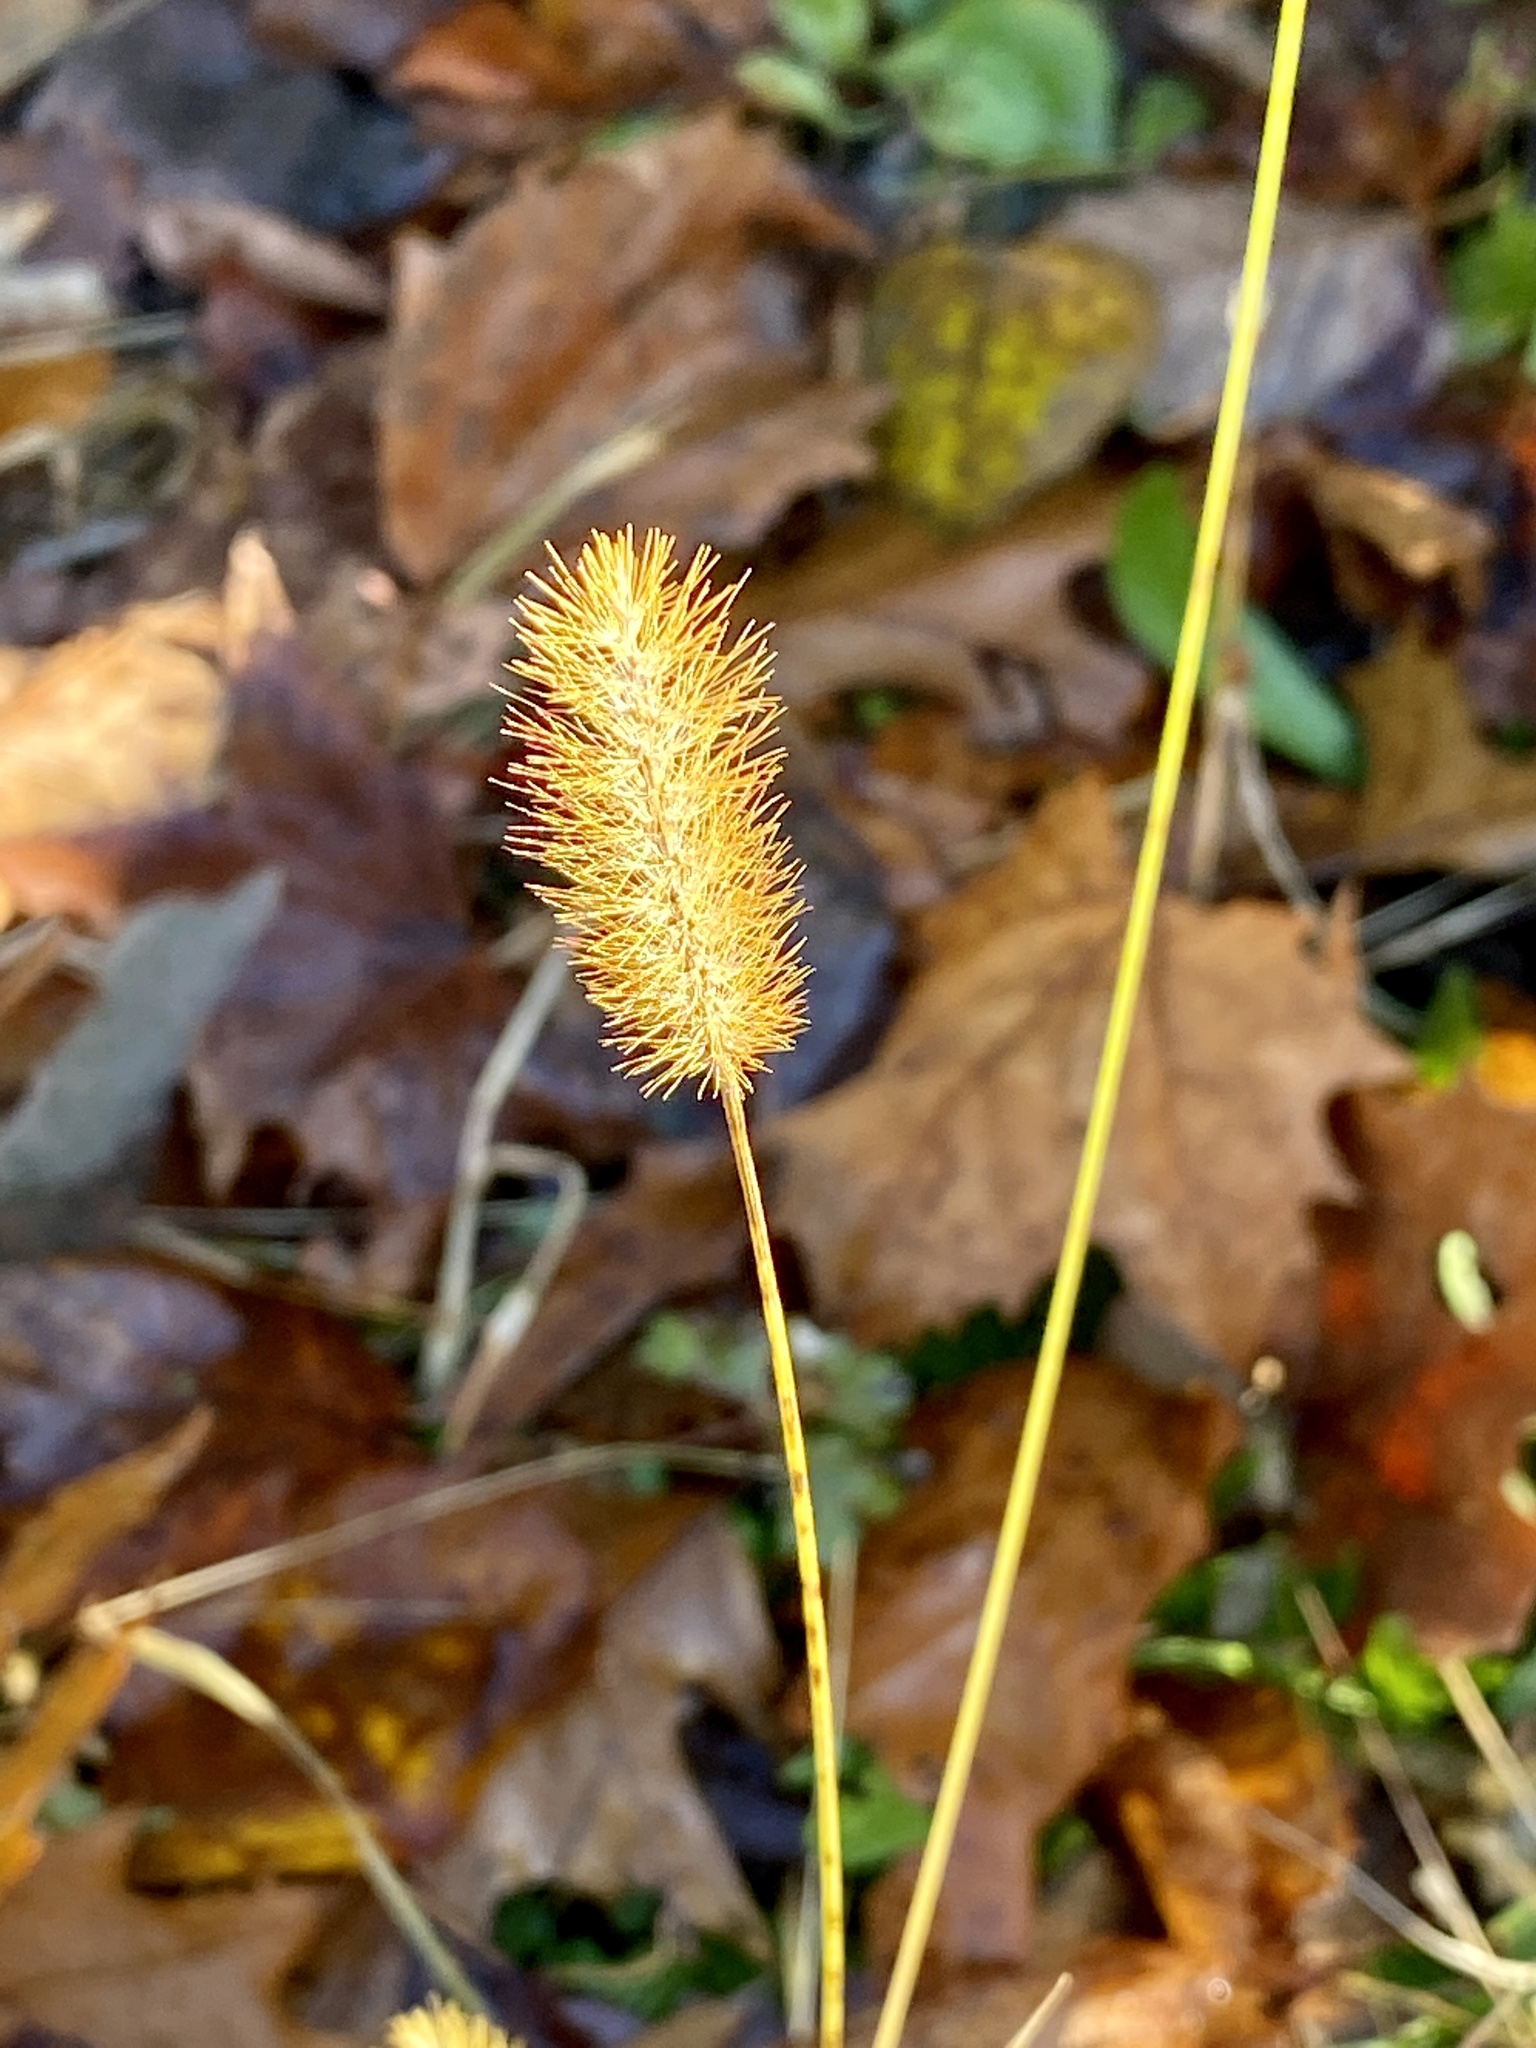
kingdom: Plantae
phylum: Tracheophyta
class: Liliopsida
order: Poales
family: Poaceae
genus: Setaria
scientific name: Setaria pumila
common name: Yellow bristle-grass
